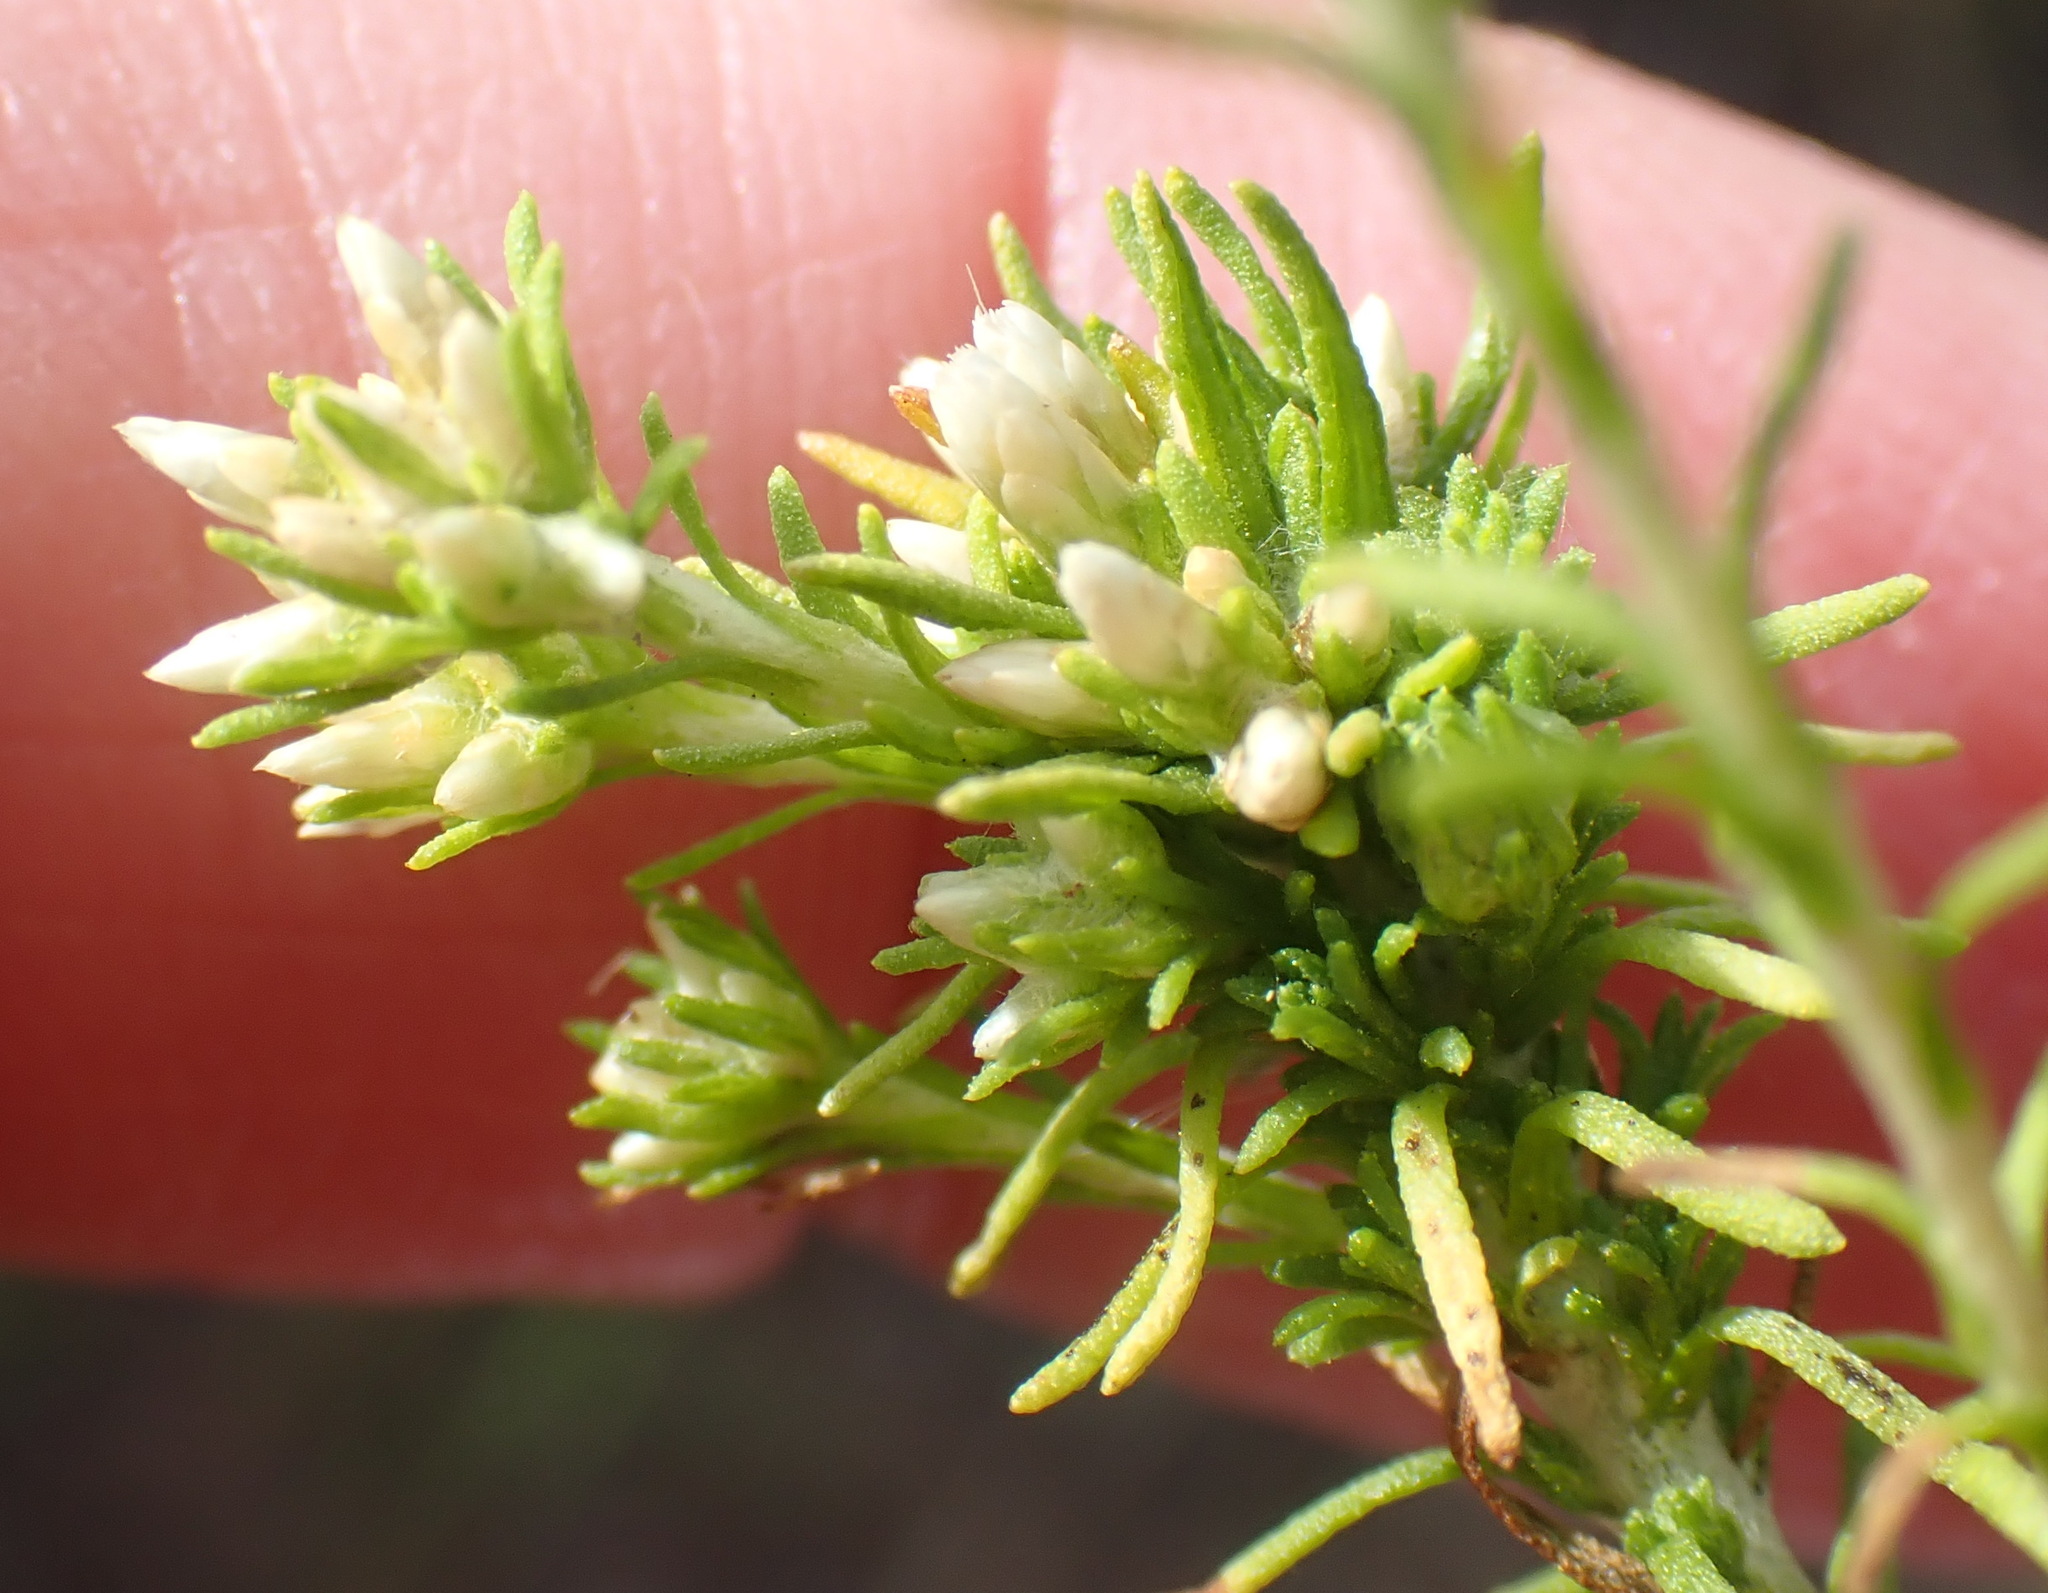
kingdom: Plantae
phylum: Tracheophyta
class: Magnoliopsida
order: Asterales
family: Asteraceae
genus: Helichrysum
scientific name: Helichrysum niveum
